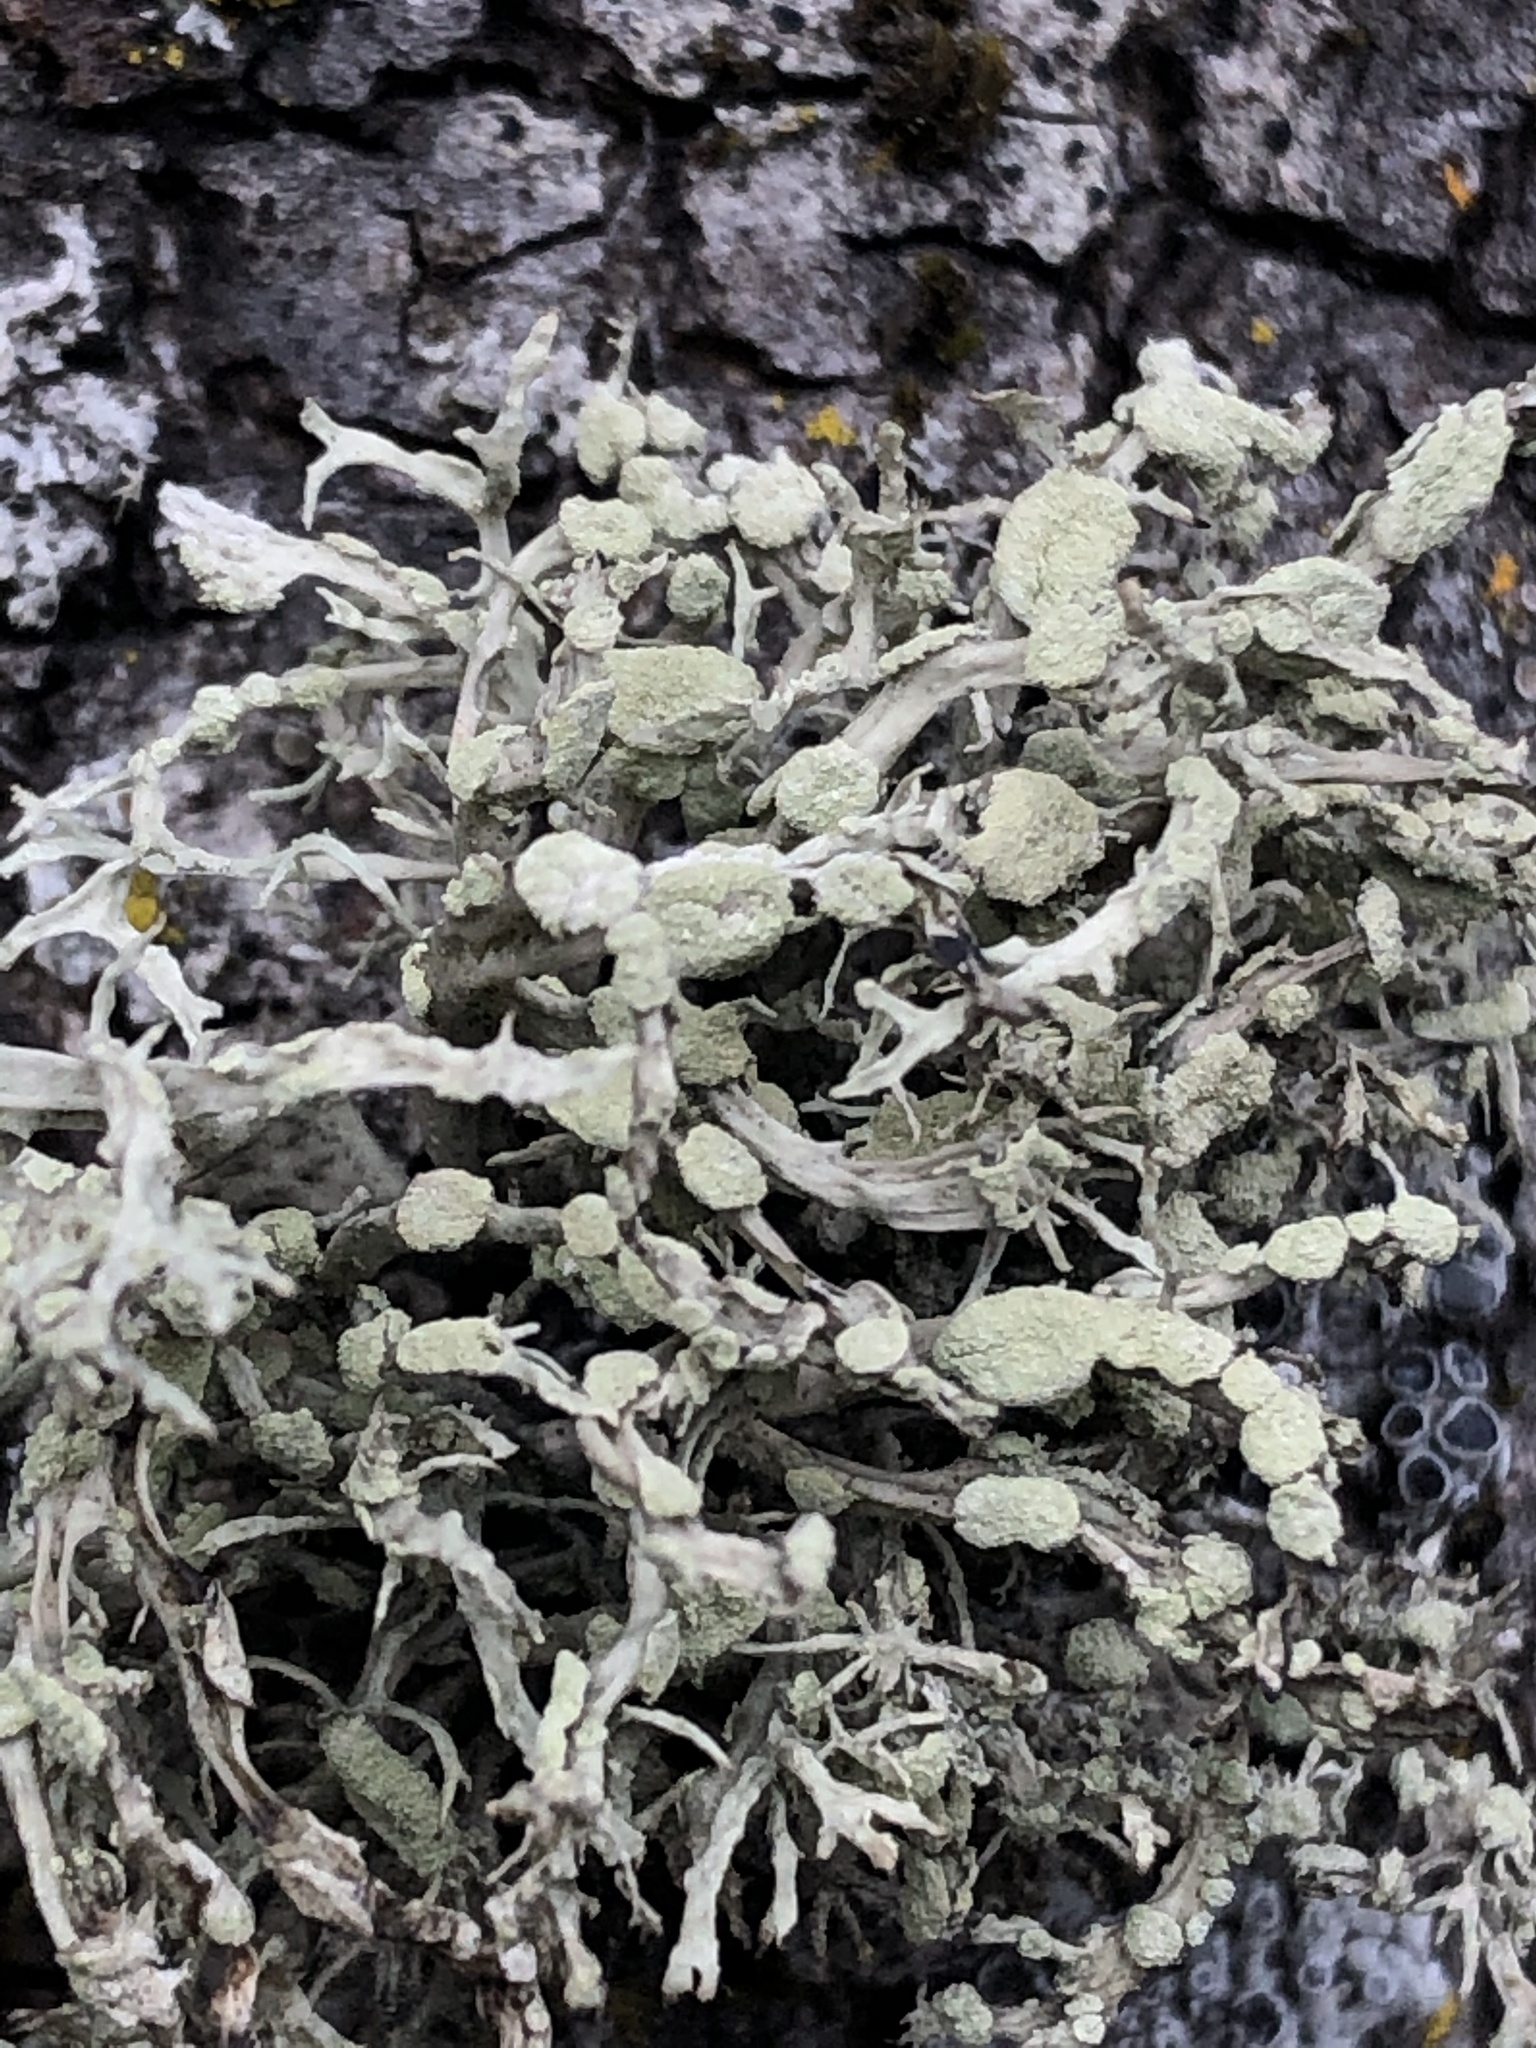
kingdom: Fungi
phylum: Ascomycota
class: Lecanoromycetes
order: Lecanorales
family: Ramalinaceae
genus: Ramalina
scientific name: Ramalina farinacea
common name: Farinose cartilage lichen
